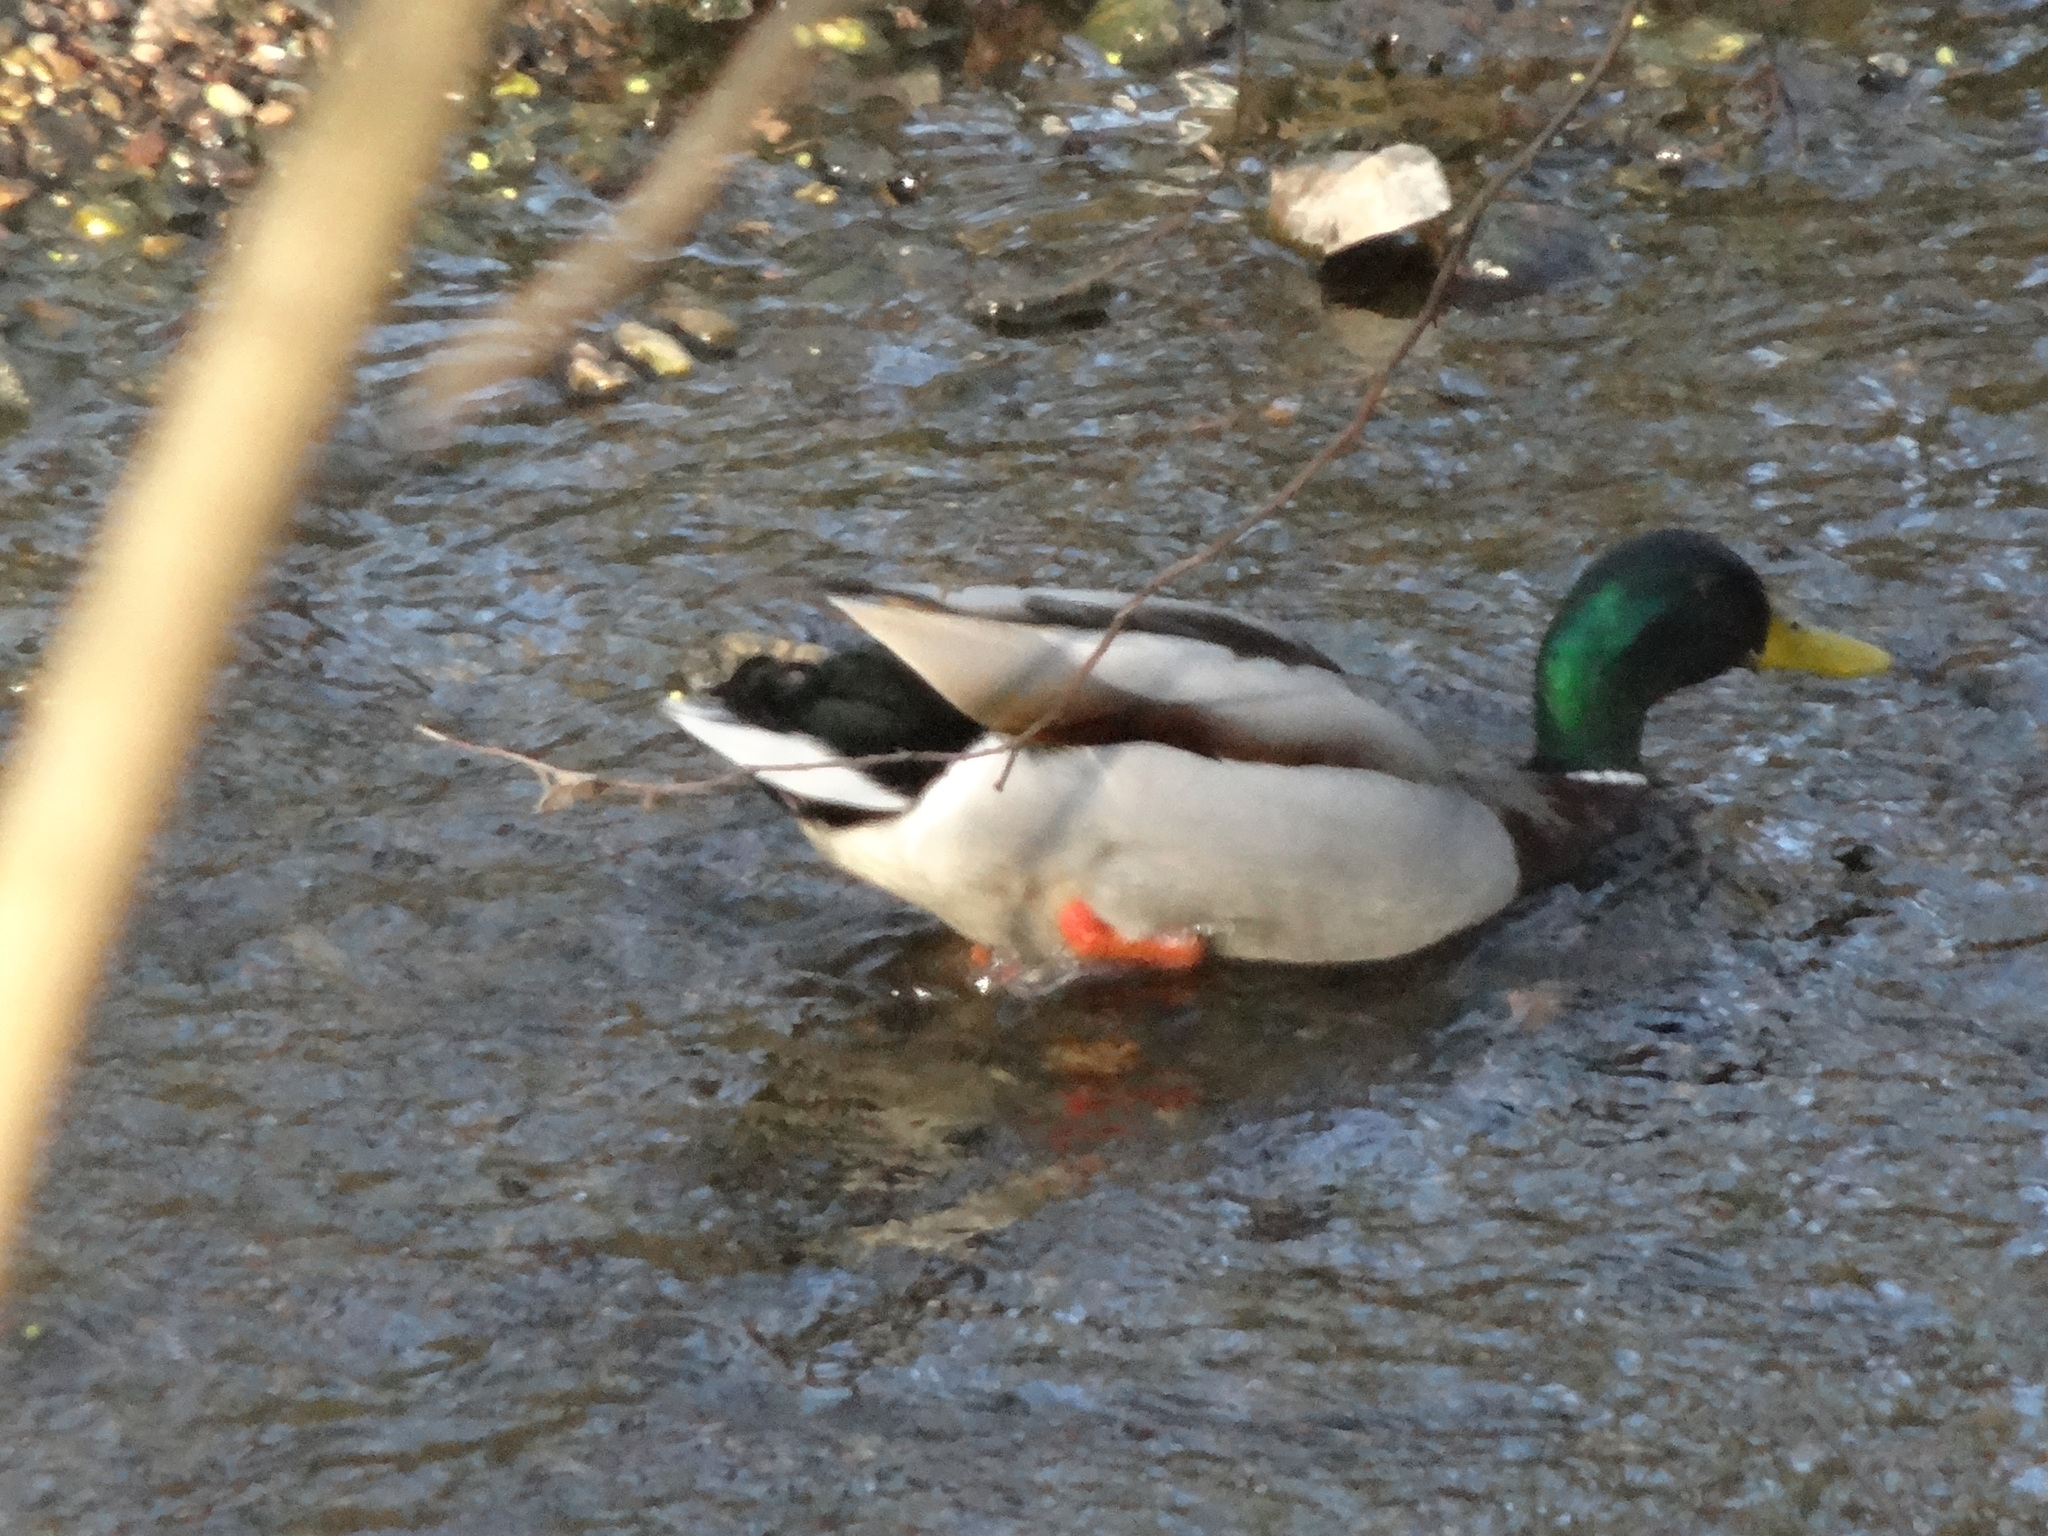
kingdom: Animalia
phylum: Chordata
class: Aves
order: Anseriformes
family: Anatidae
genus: Anas
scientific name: Anas platyrhynchos
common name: Mallard
